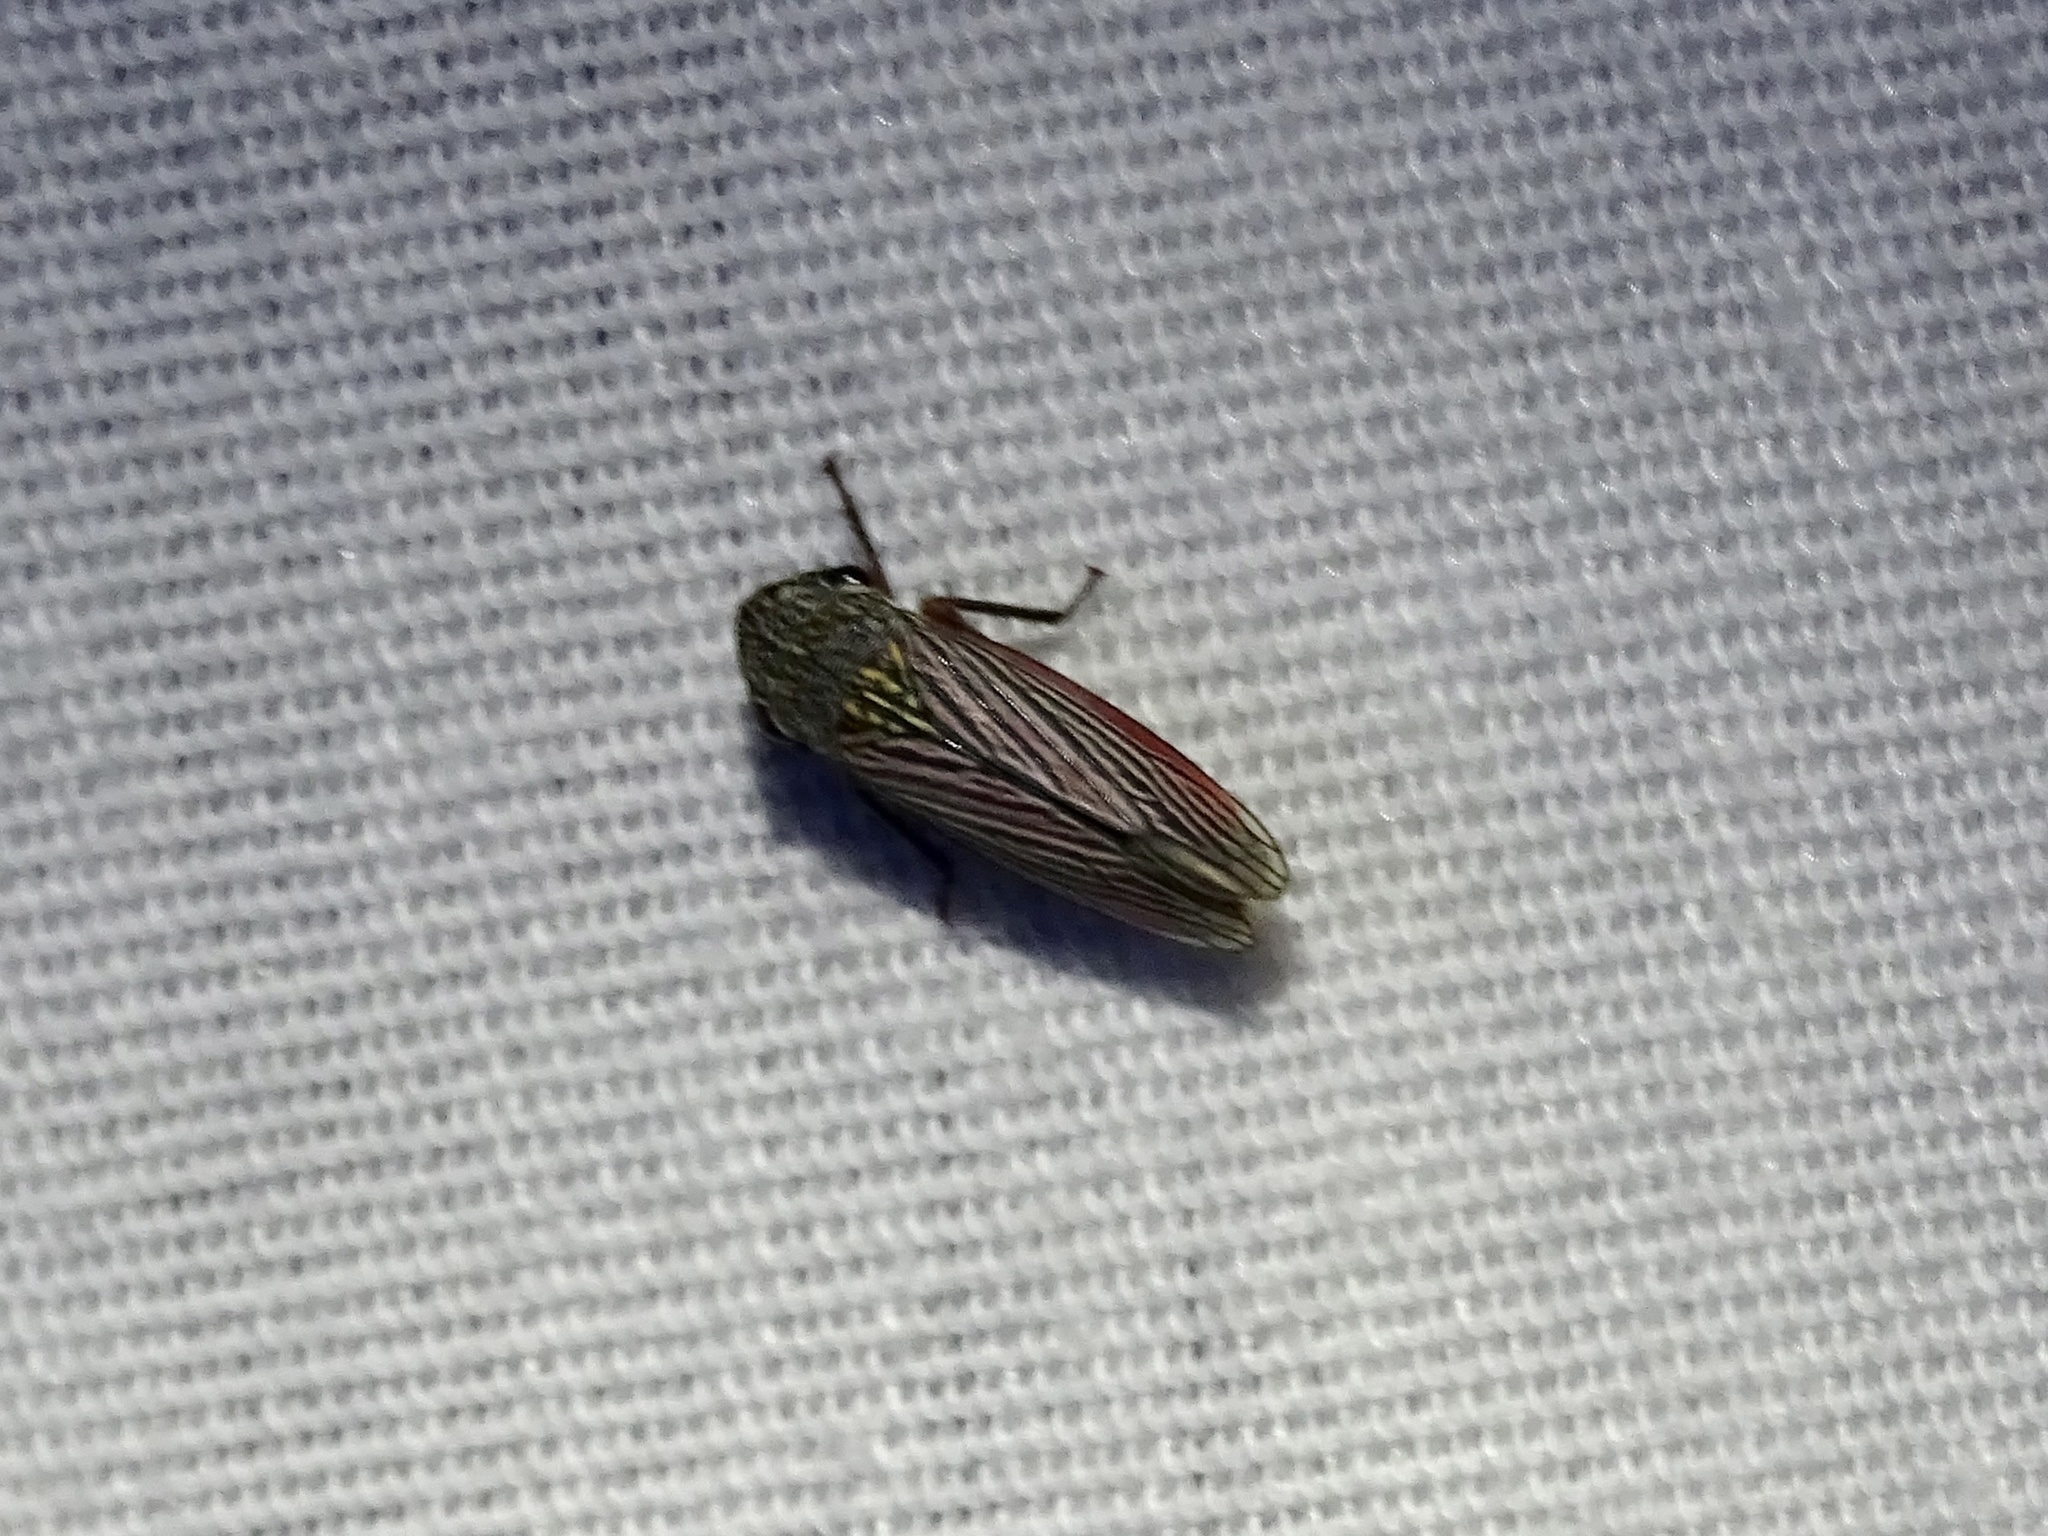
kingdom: Animalia
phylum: Arthropoda
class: Insecta
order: Hemiptera
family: Cicadellidae
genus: Cuerna
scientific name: Cuerna costalis
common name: Lateral-lined sharpshooter
